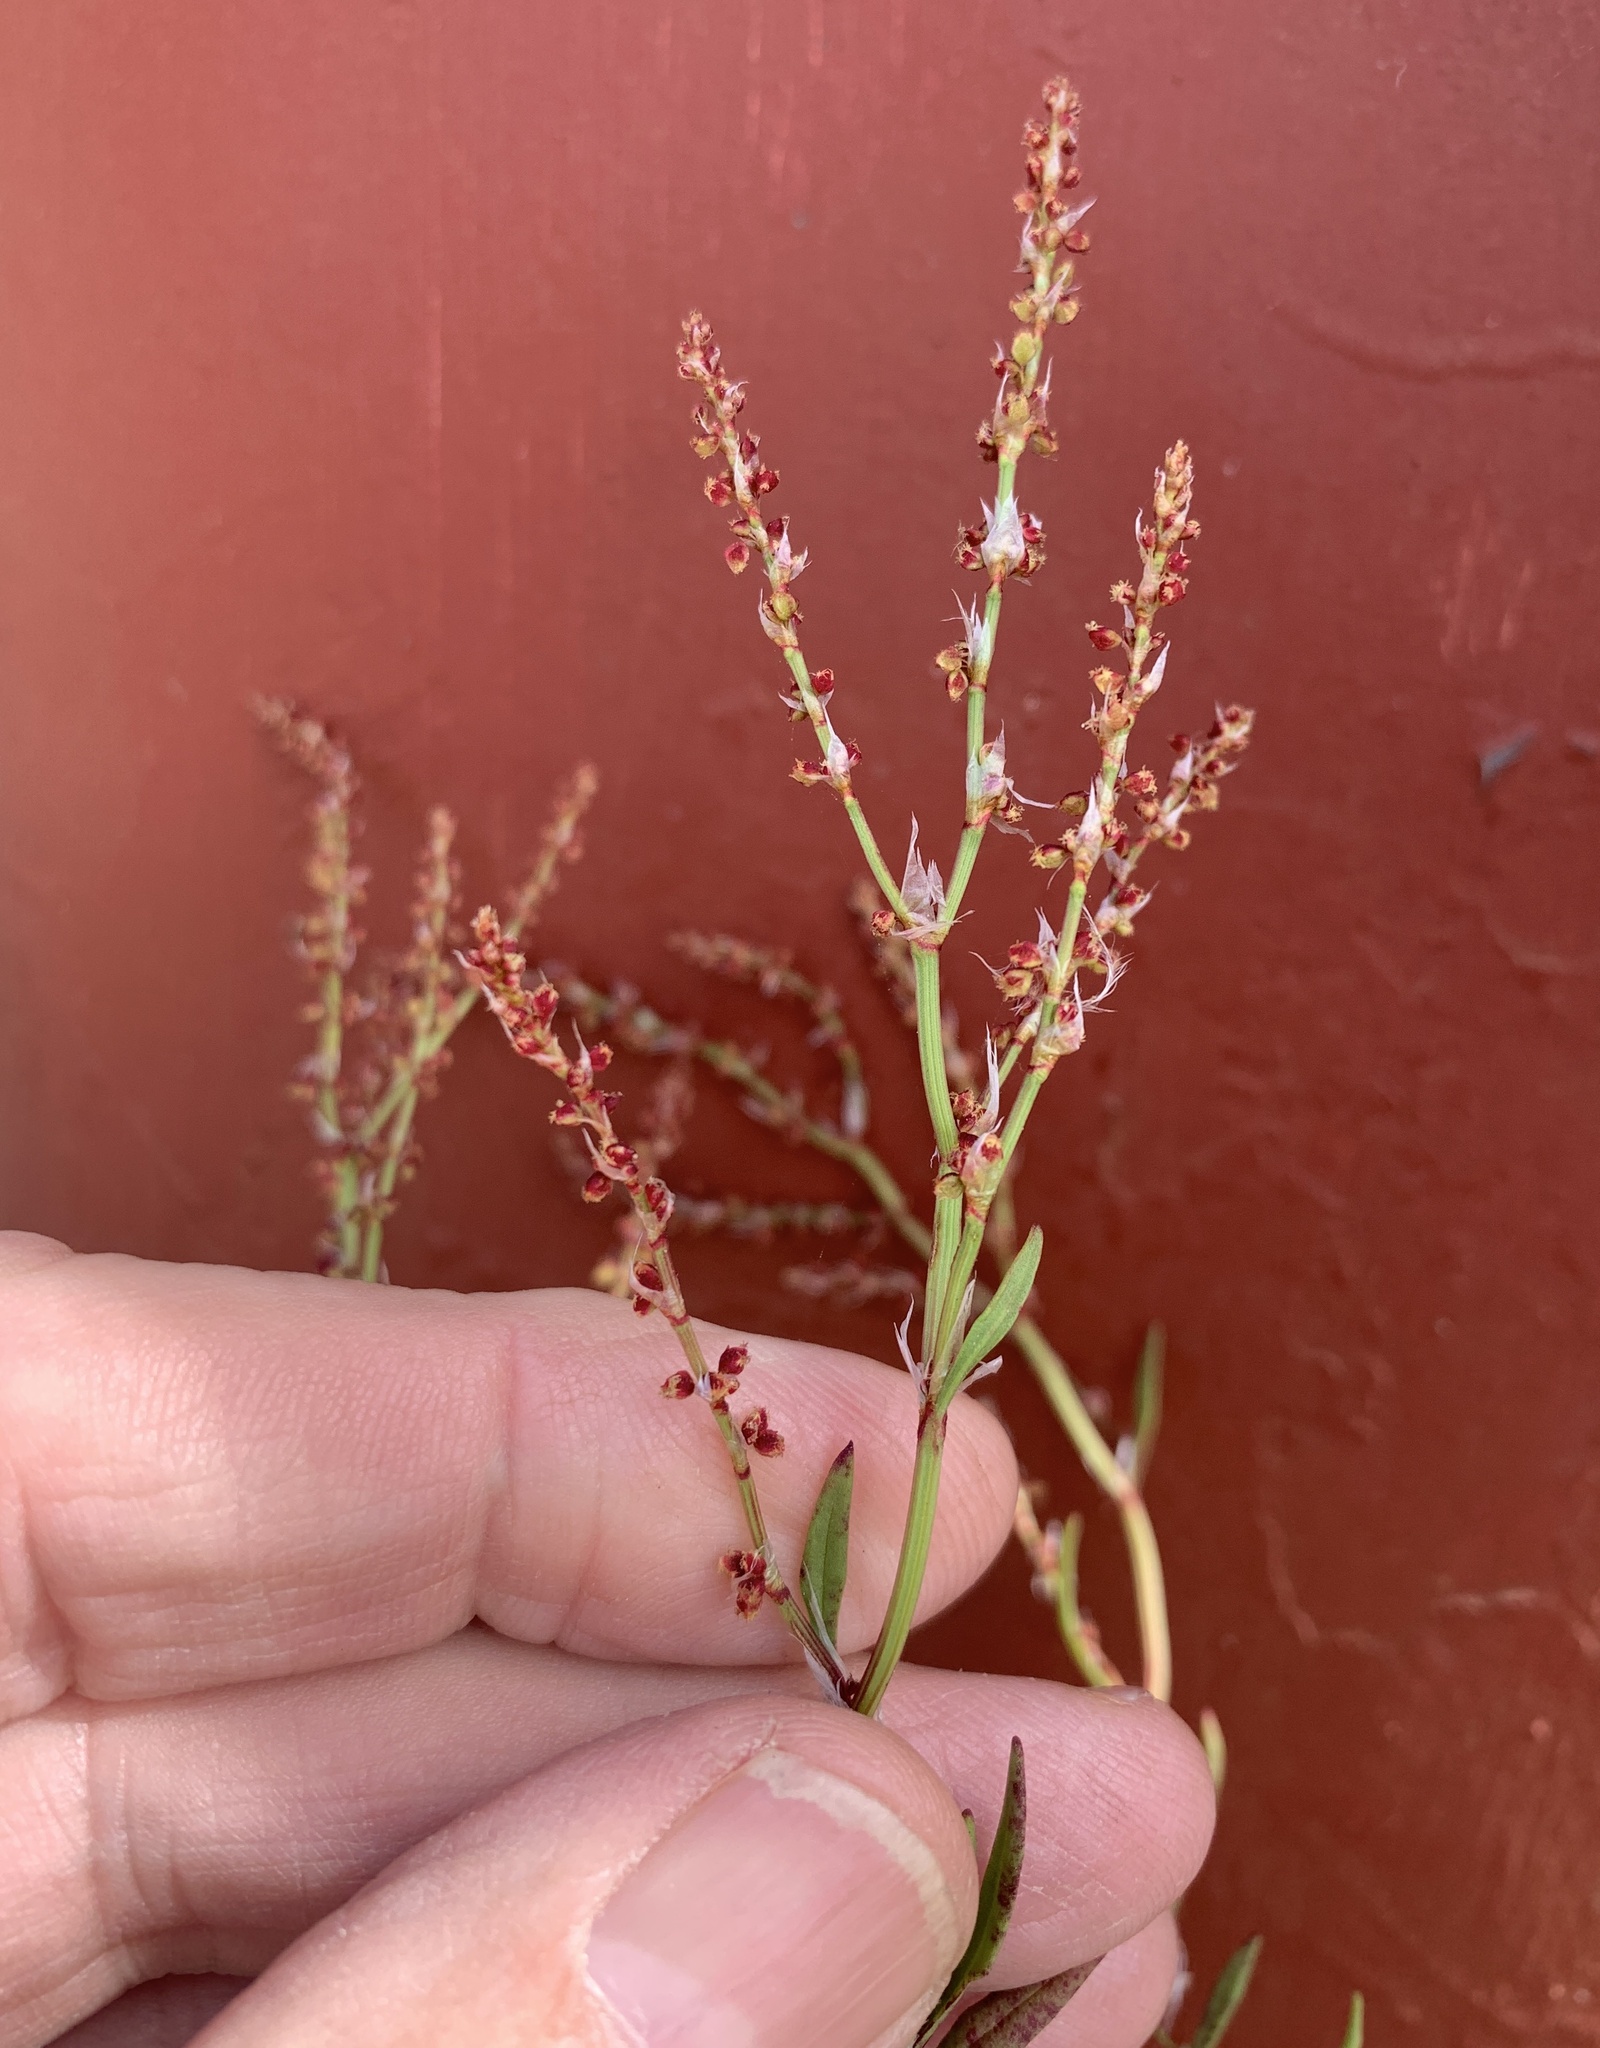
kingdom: Plantae
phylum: Tracheophyta
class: Magnoliopsida
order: Caryophyllales
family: Polygonaceae
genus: Rumex
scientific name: Rumex acetosella
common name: Common sheep sorrel
